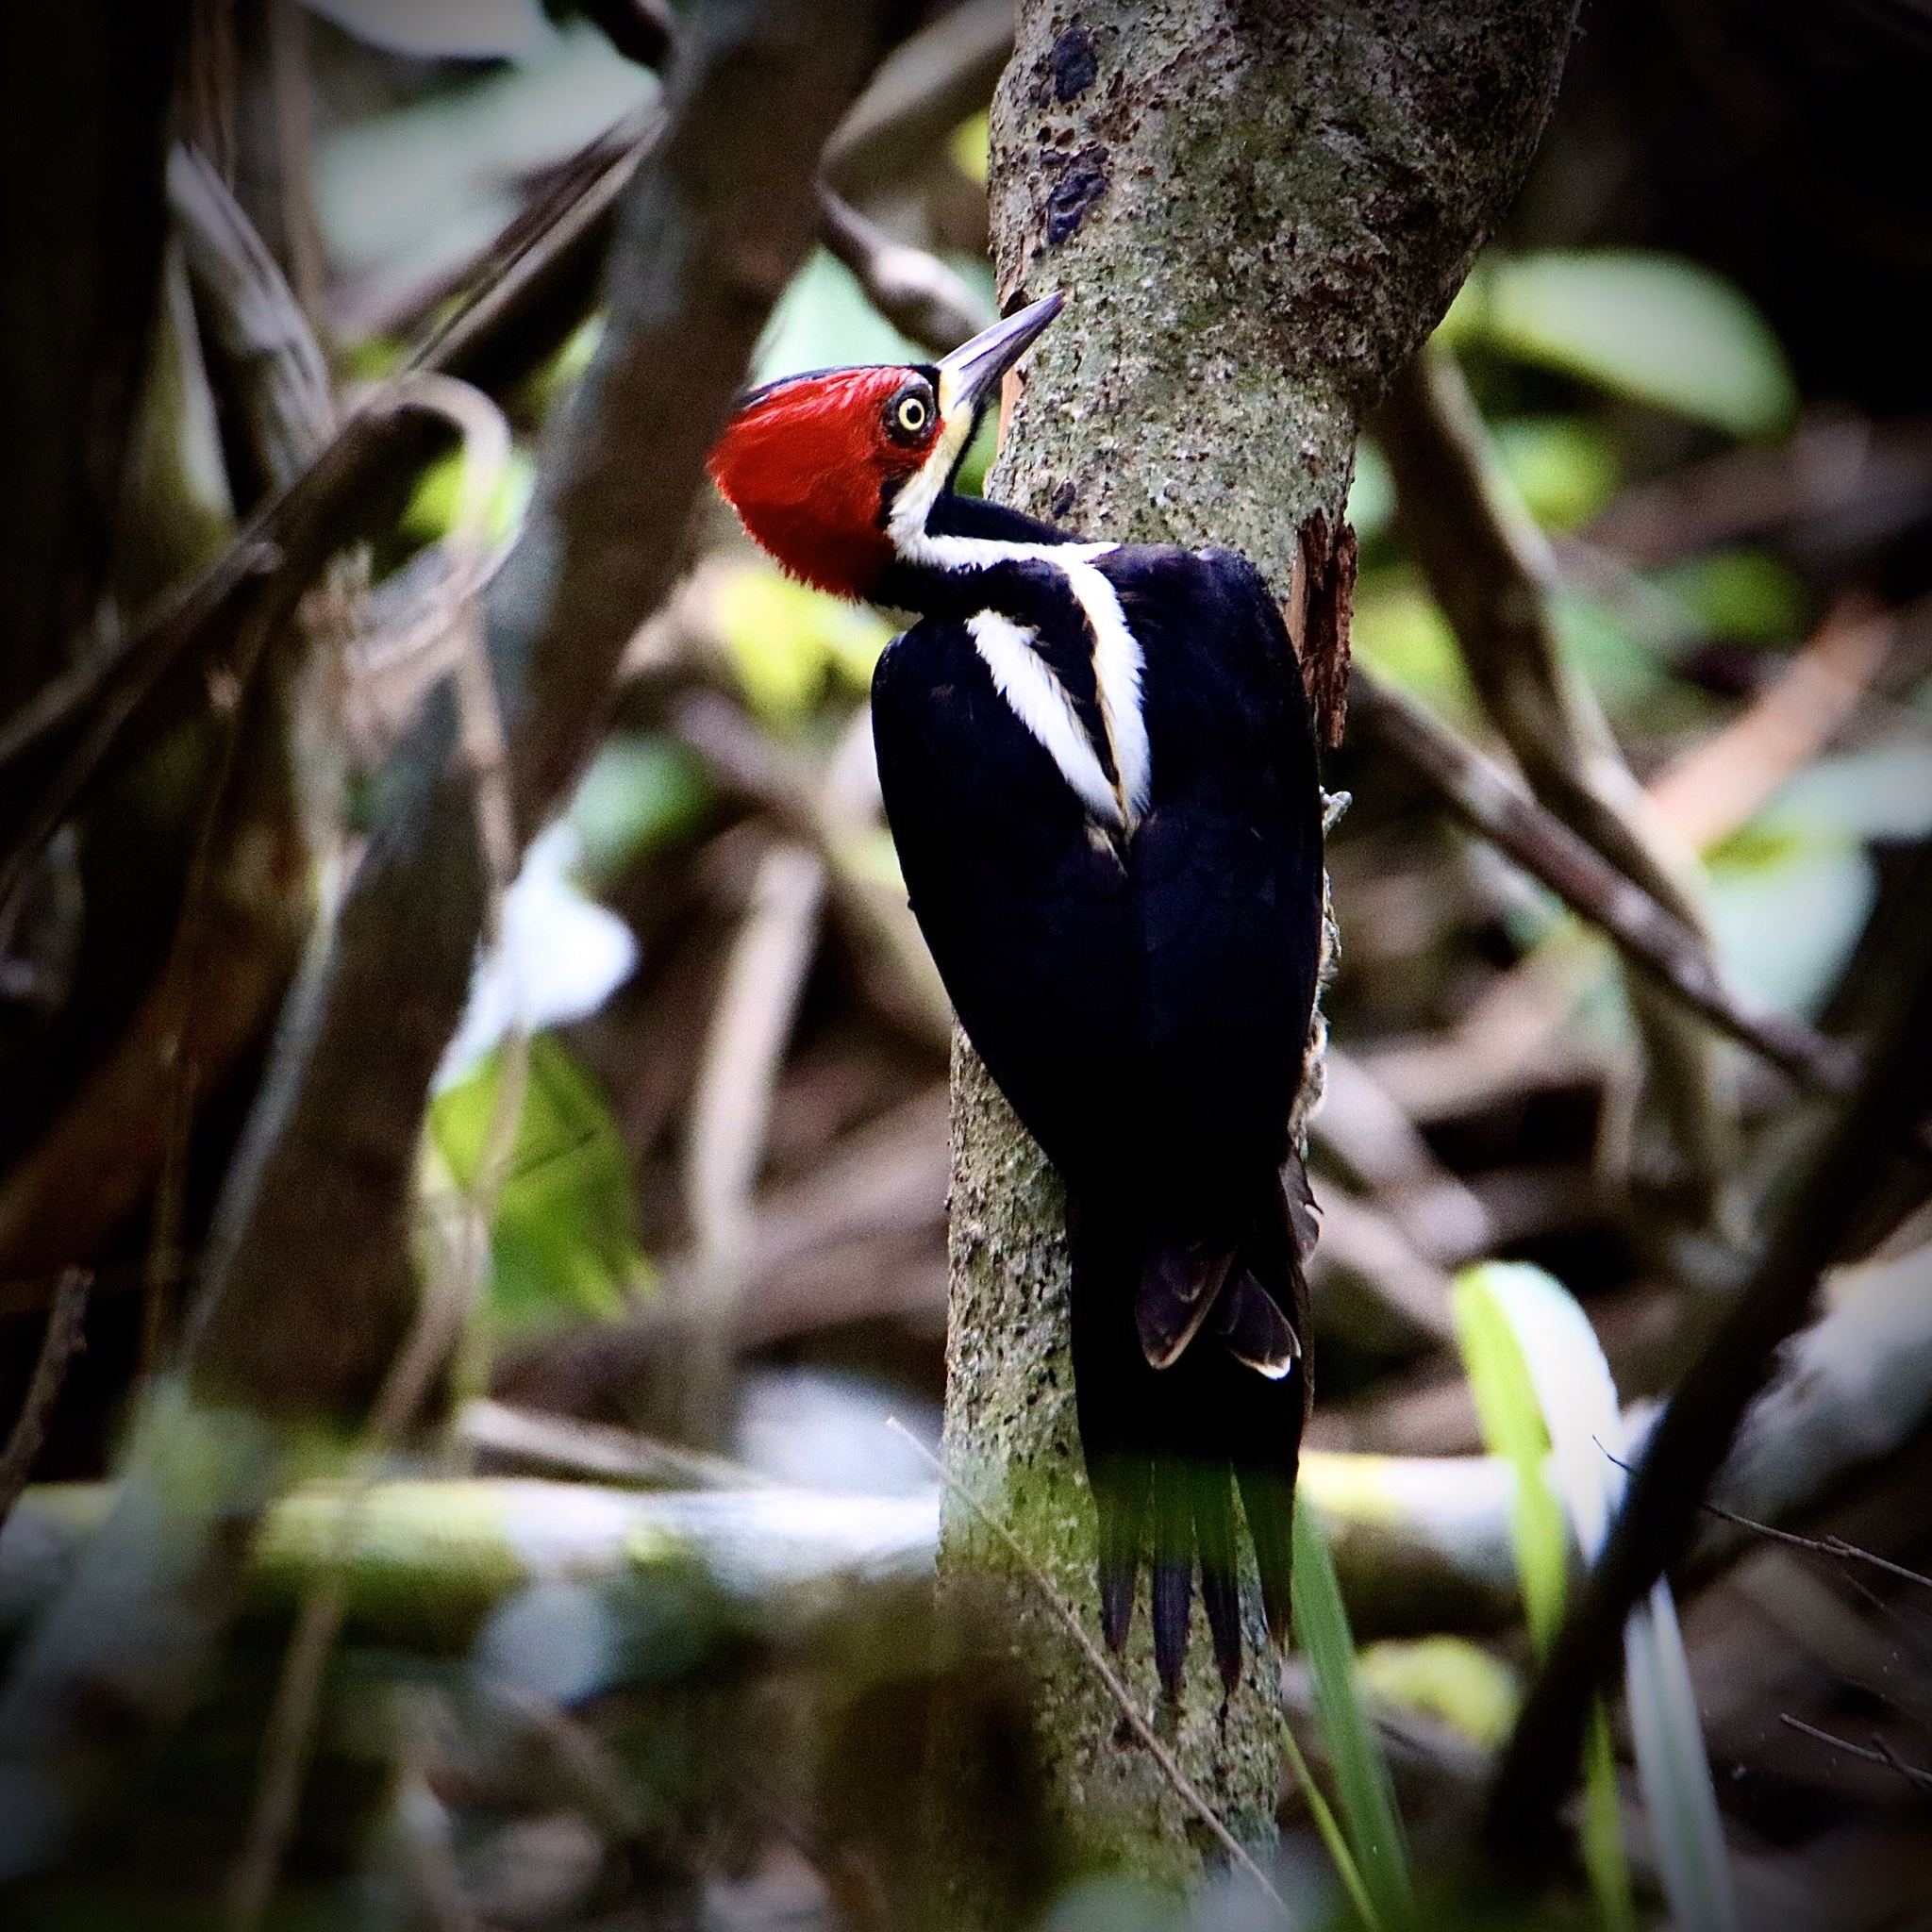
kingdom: Animalia
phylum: Chordata
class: Aves
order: Piciformes
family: Picidae
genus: Campephilus
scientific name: Campephilus melanoleucos
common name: Crimson-crested woodpecker
